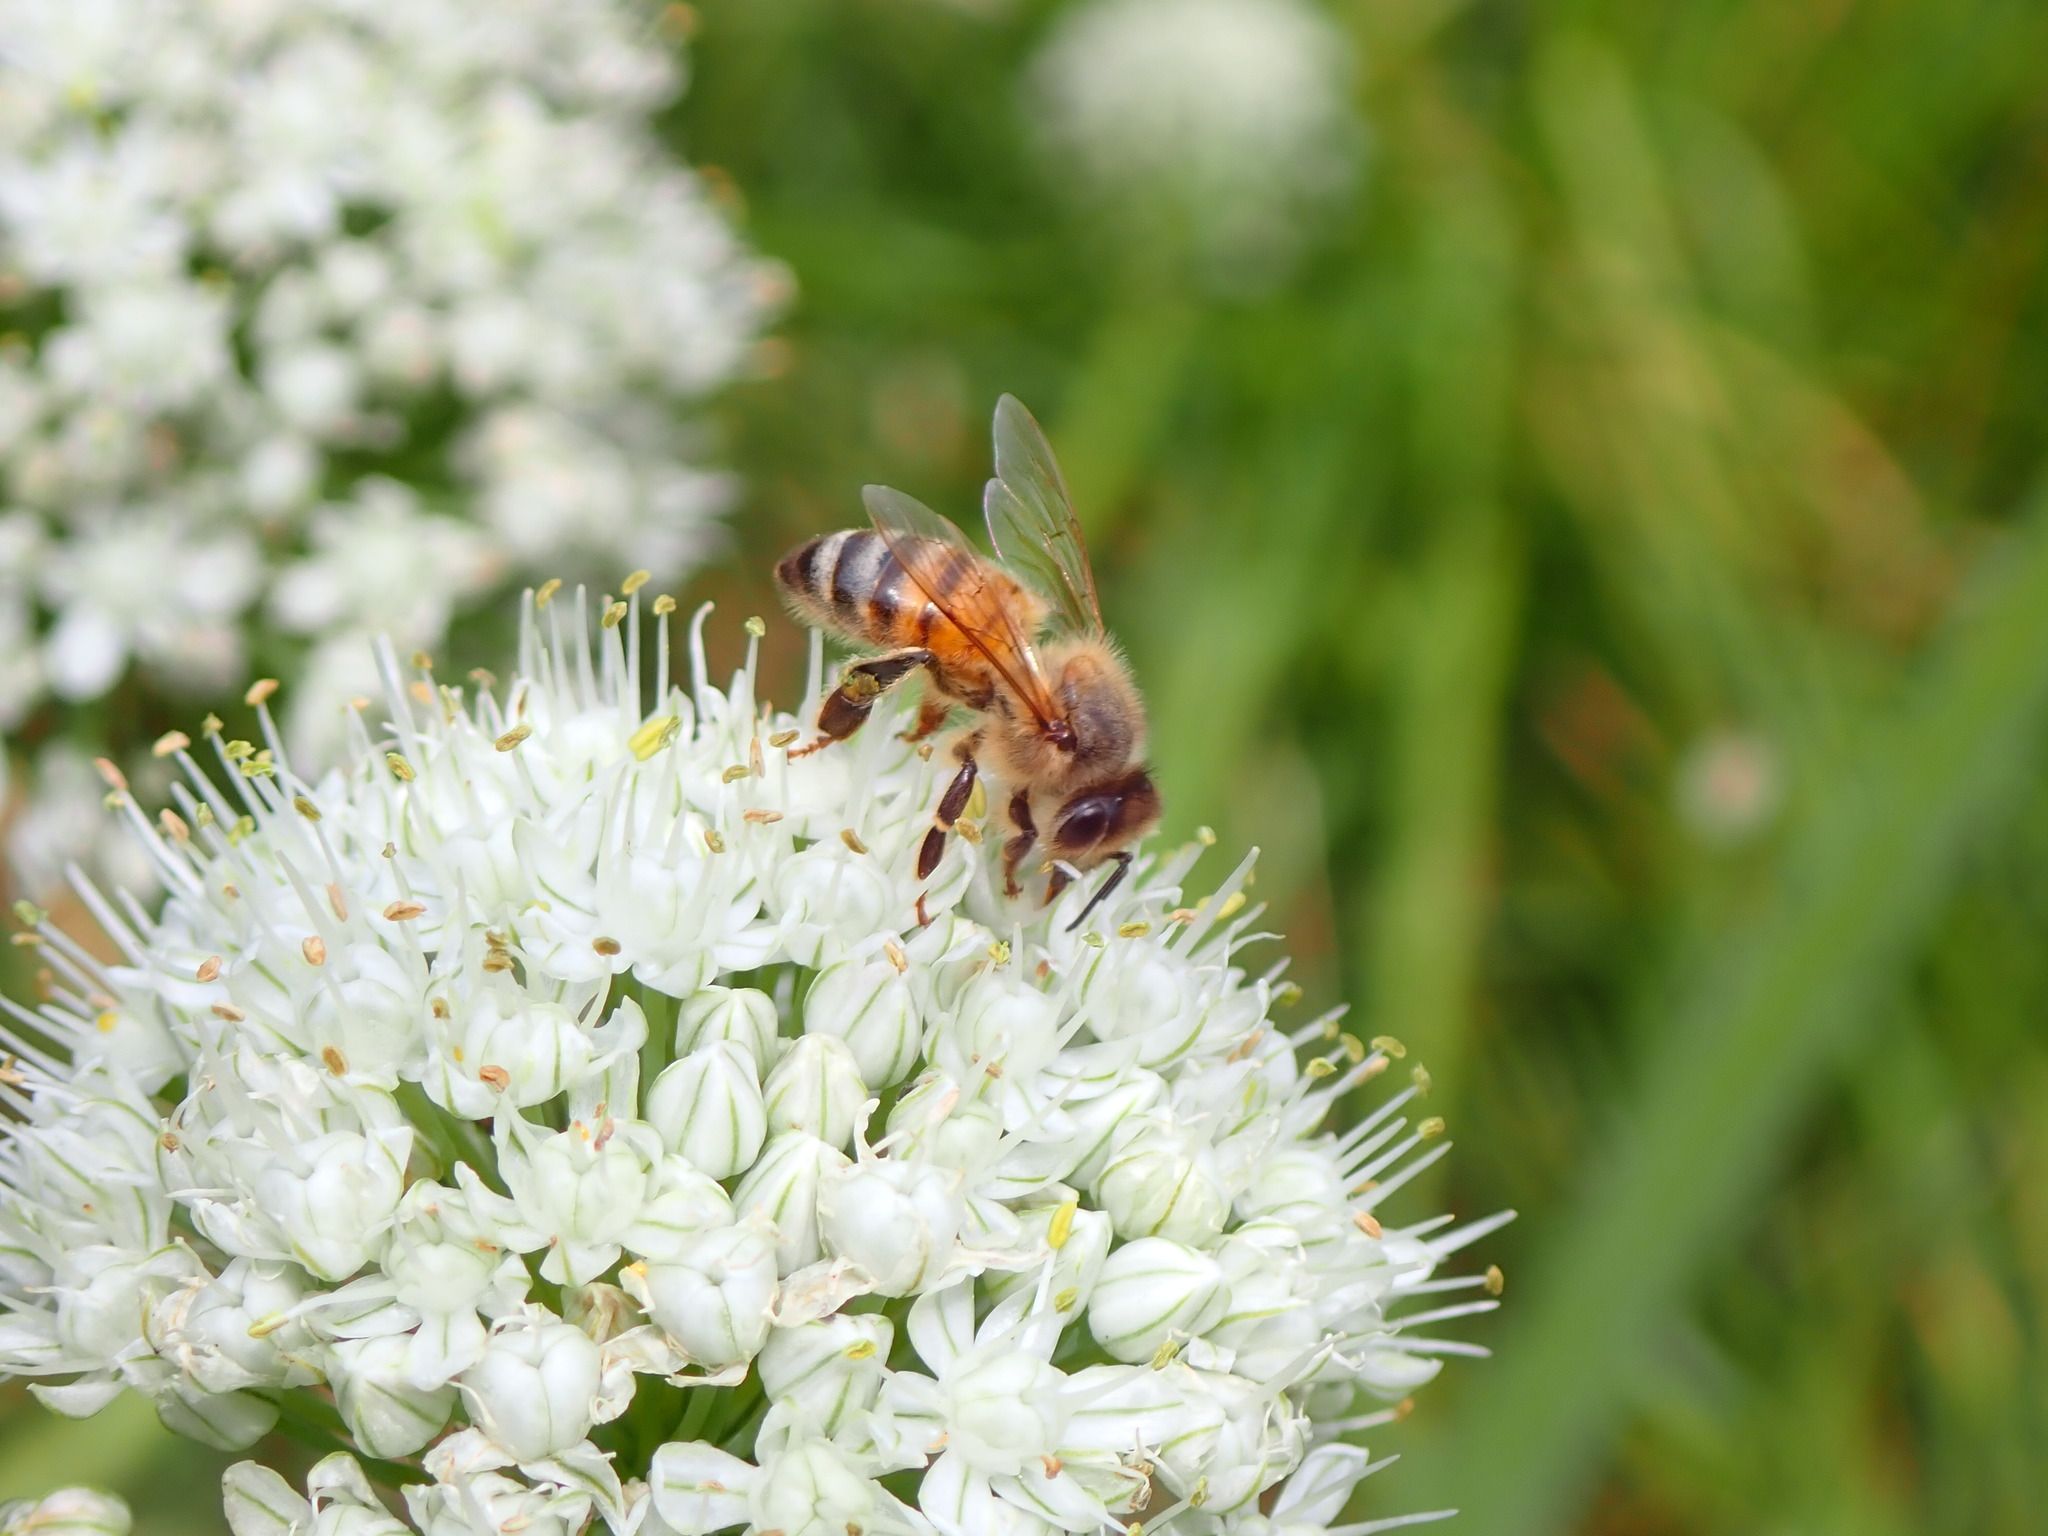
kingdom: Animalia
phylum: Arthropoda
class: Insecta
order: Hymenoptera
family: Apidae
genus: Apis
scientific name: Apis mellifera
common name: Honey bee
